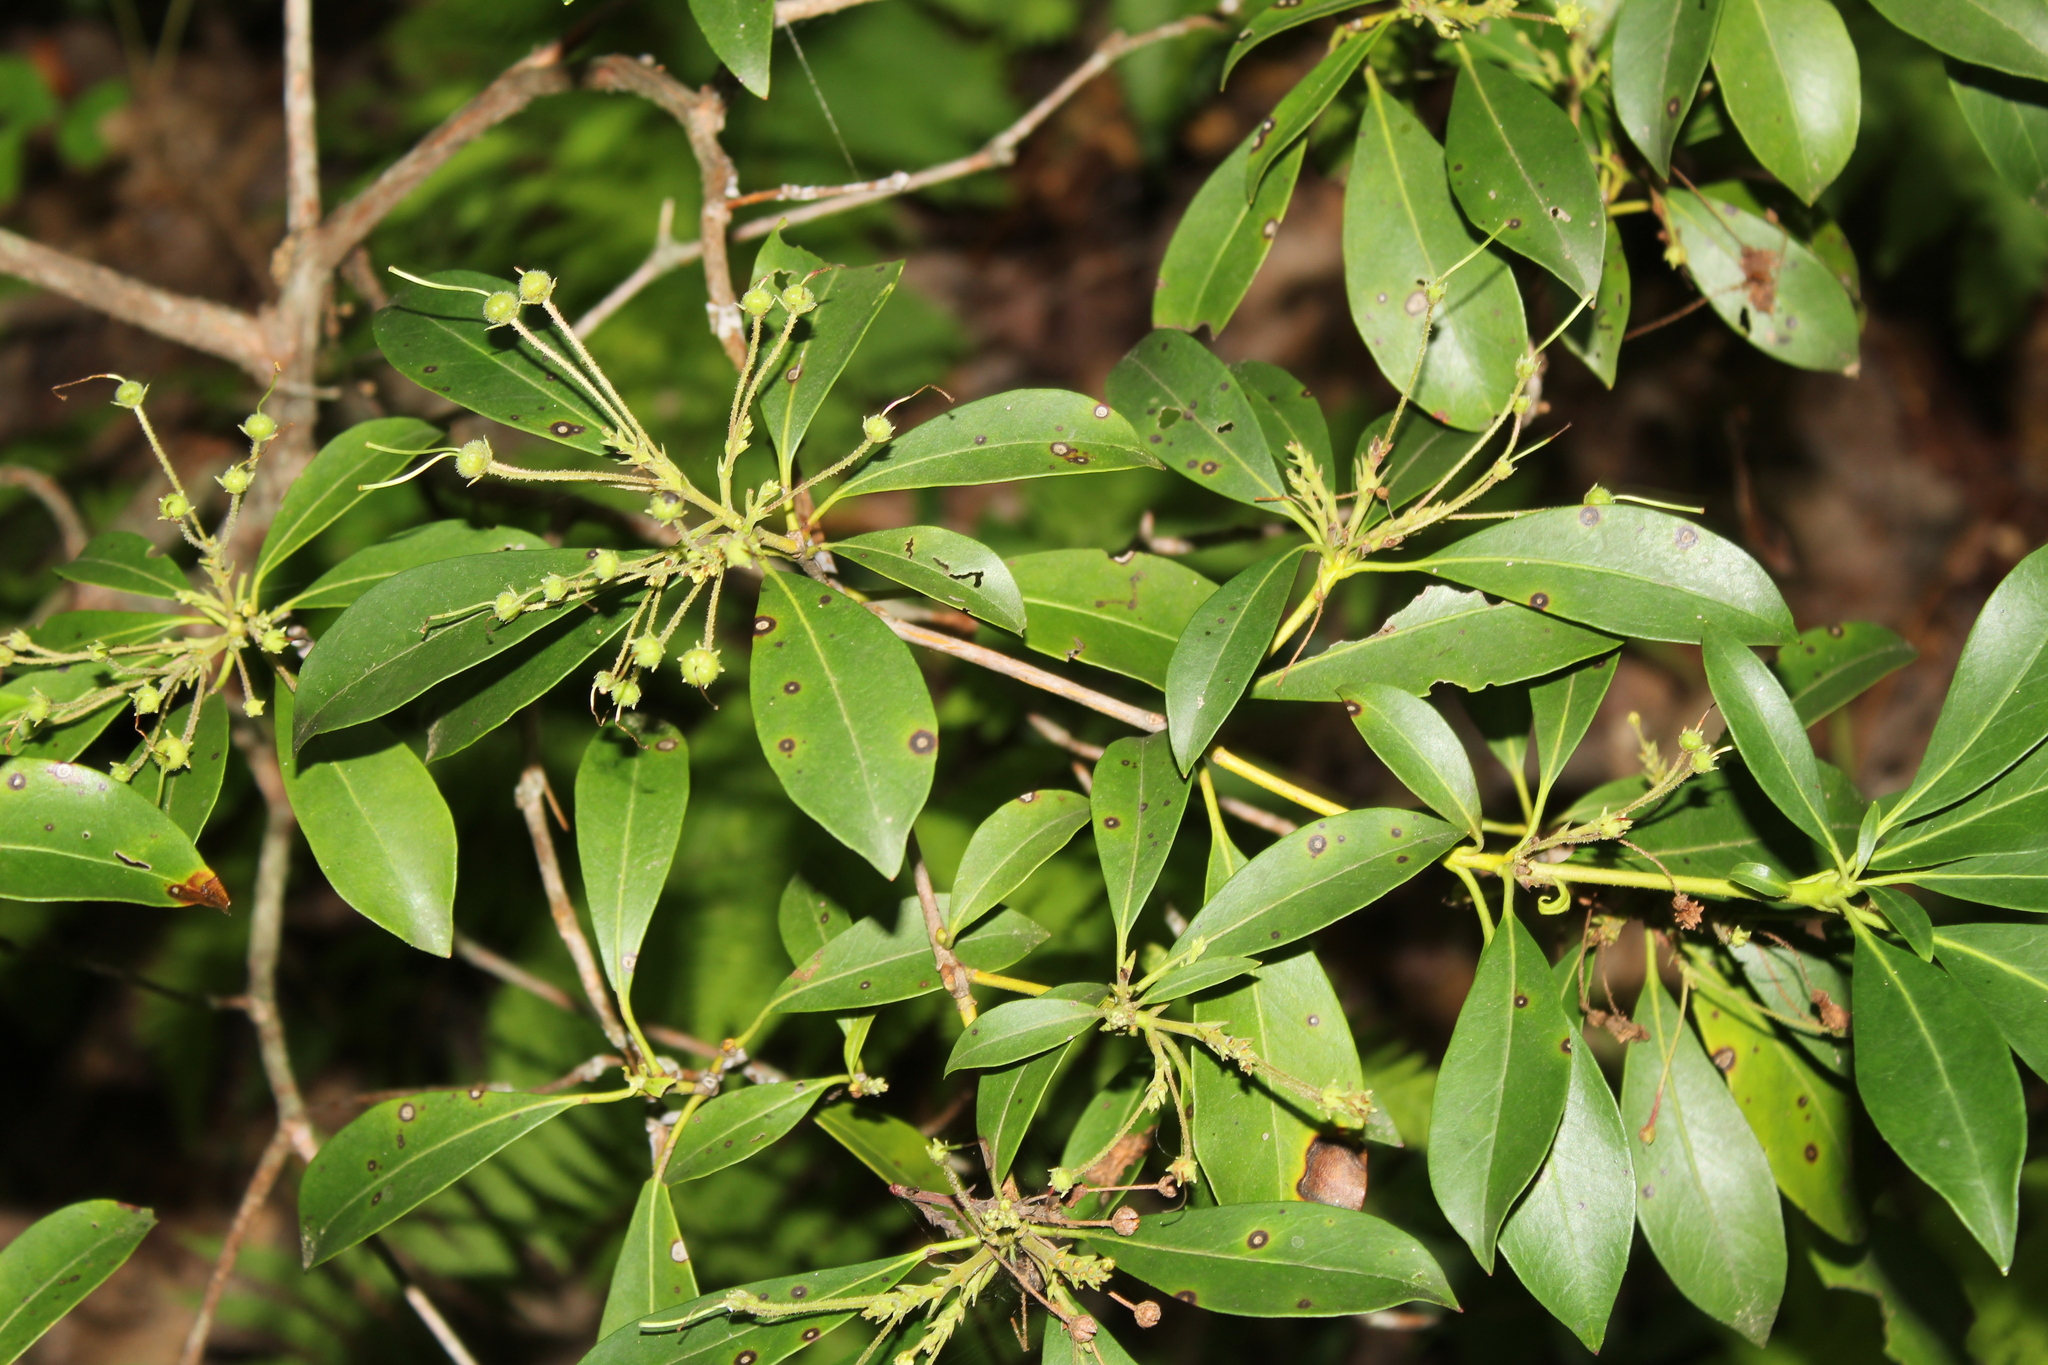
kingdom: Plantae
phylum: Tracheophyta
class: Magnoliopsida
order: Ericales
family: Ericaceae
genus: Kalmia
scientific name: Kalmia latifolia
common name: Mountain-laurel
